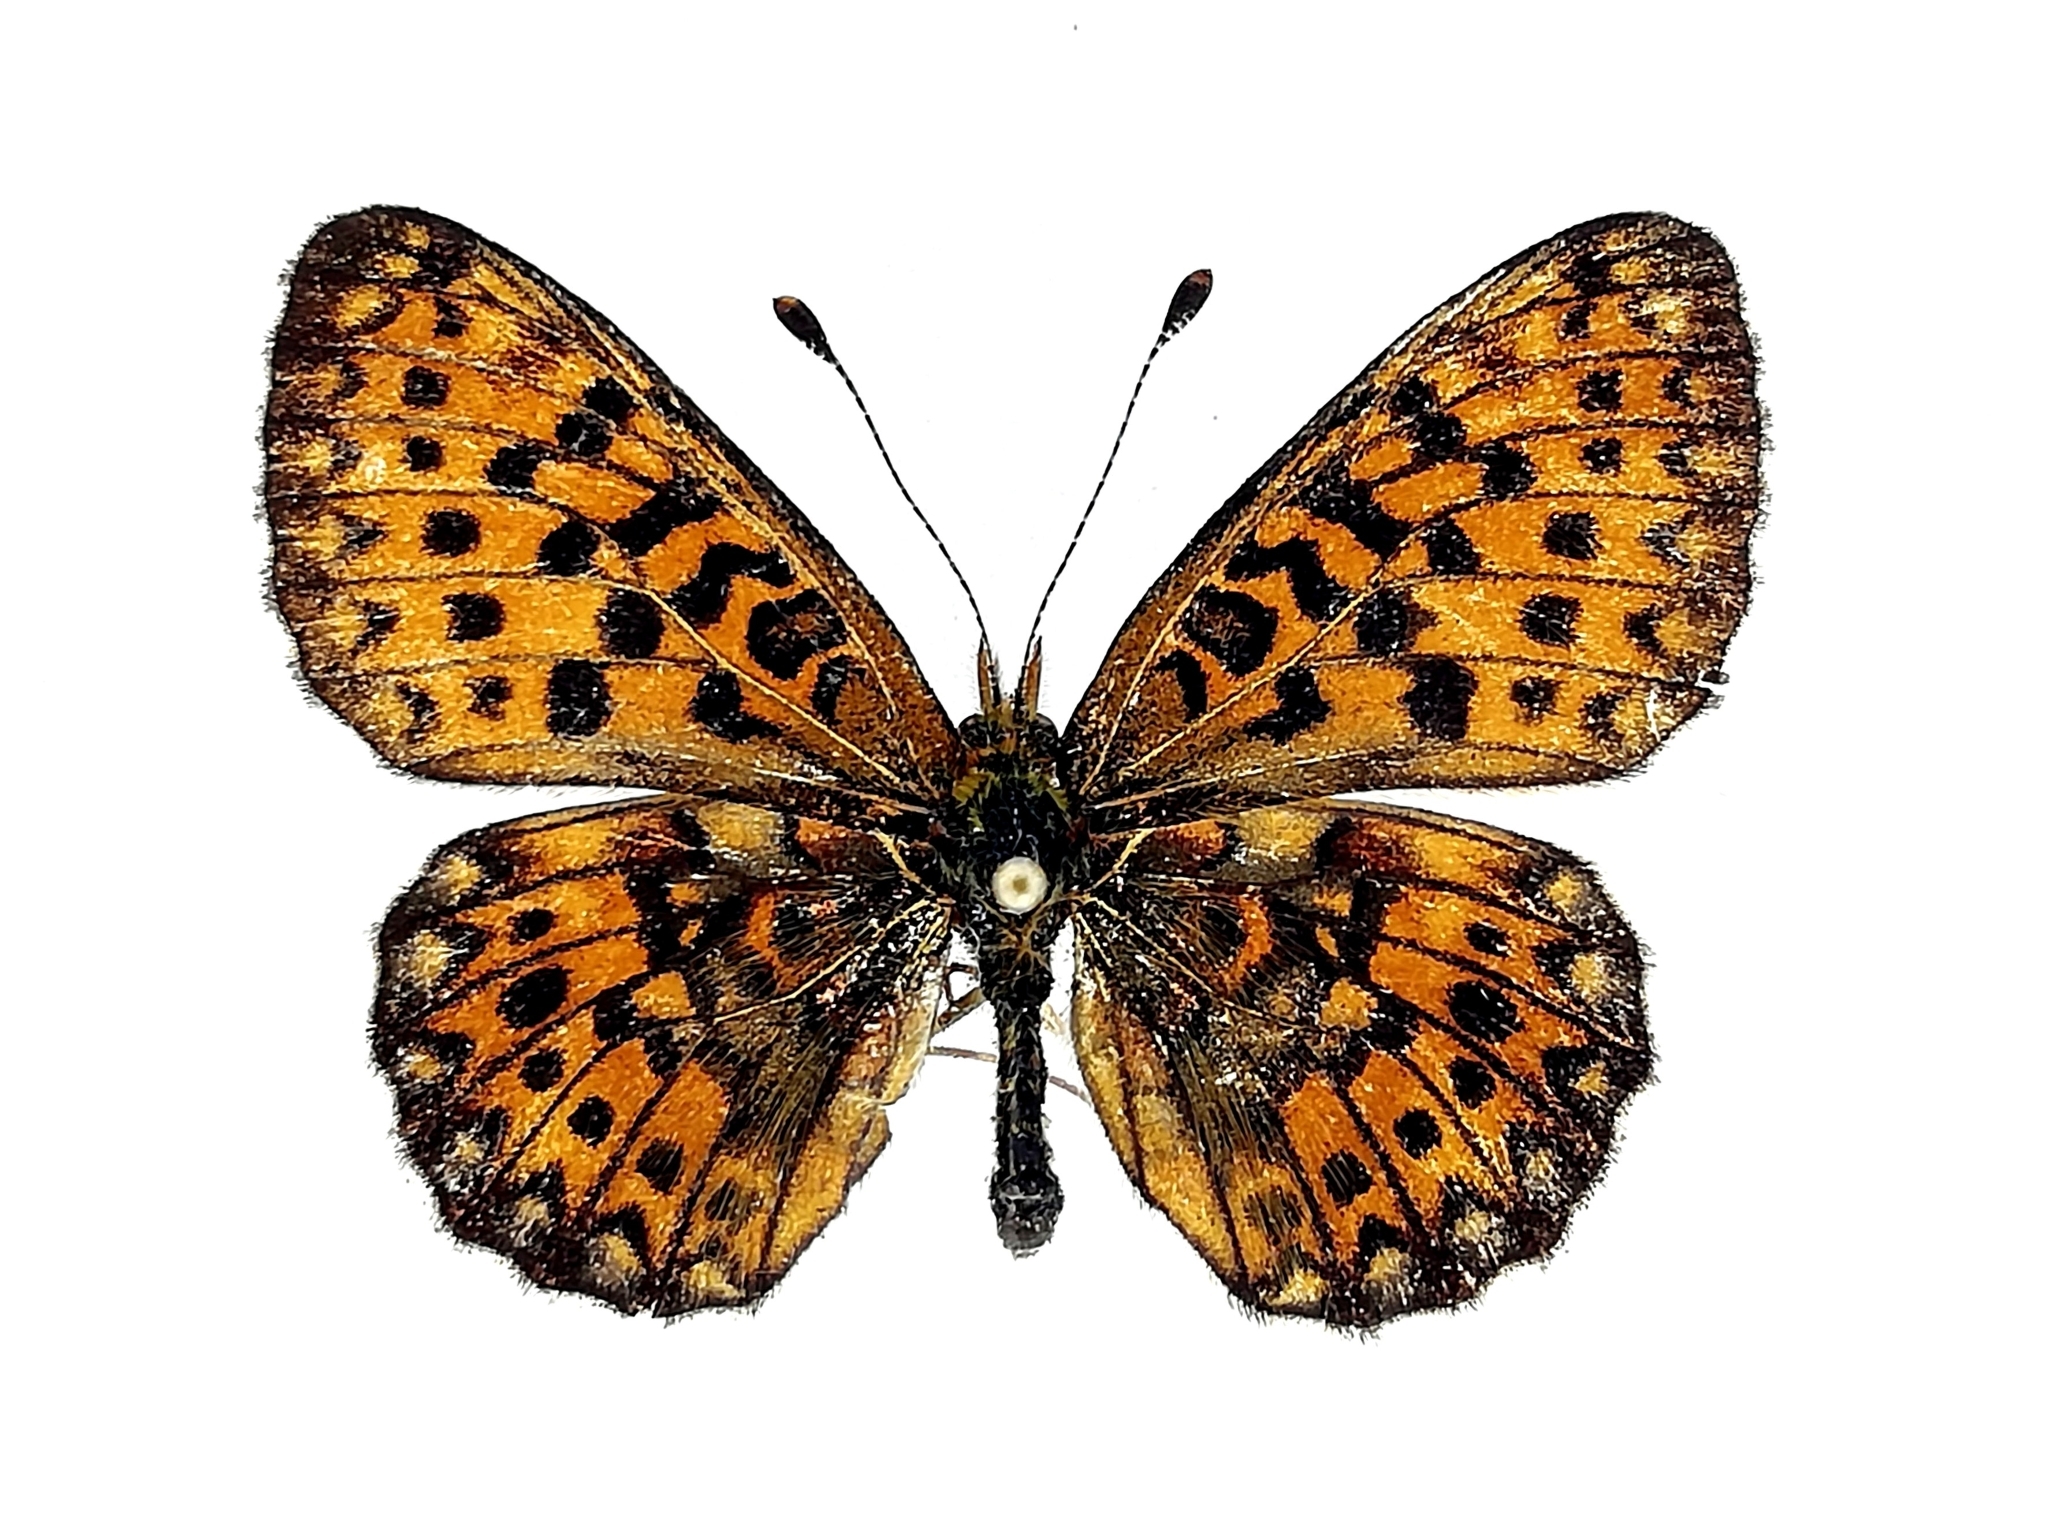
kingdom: Animalia
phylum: Arthropoda
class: Insecta
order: Lepidoptera
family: Nymphalidae
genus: Clossiana
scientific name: Clossiana euphrosyne
